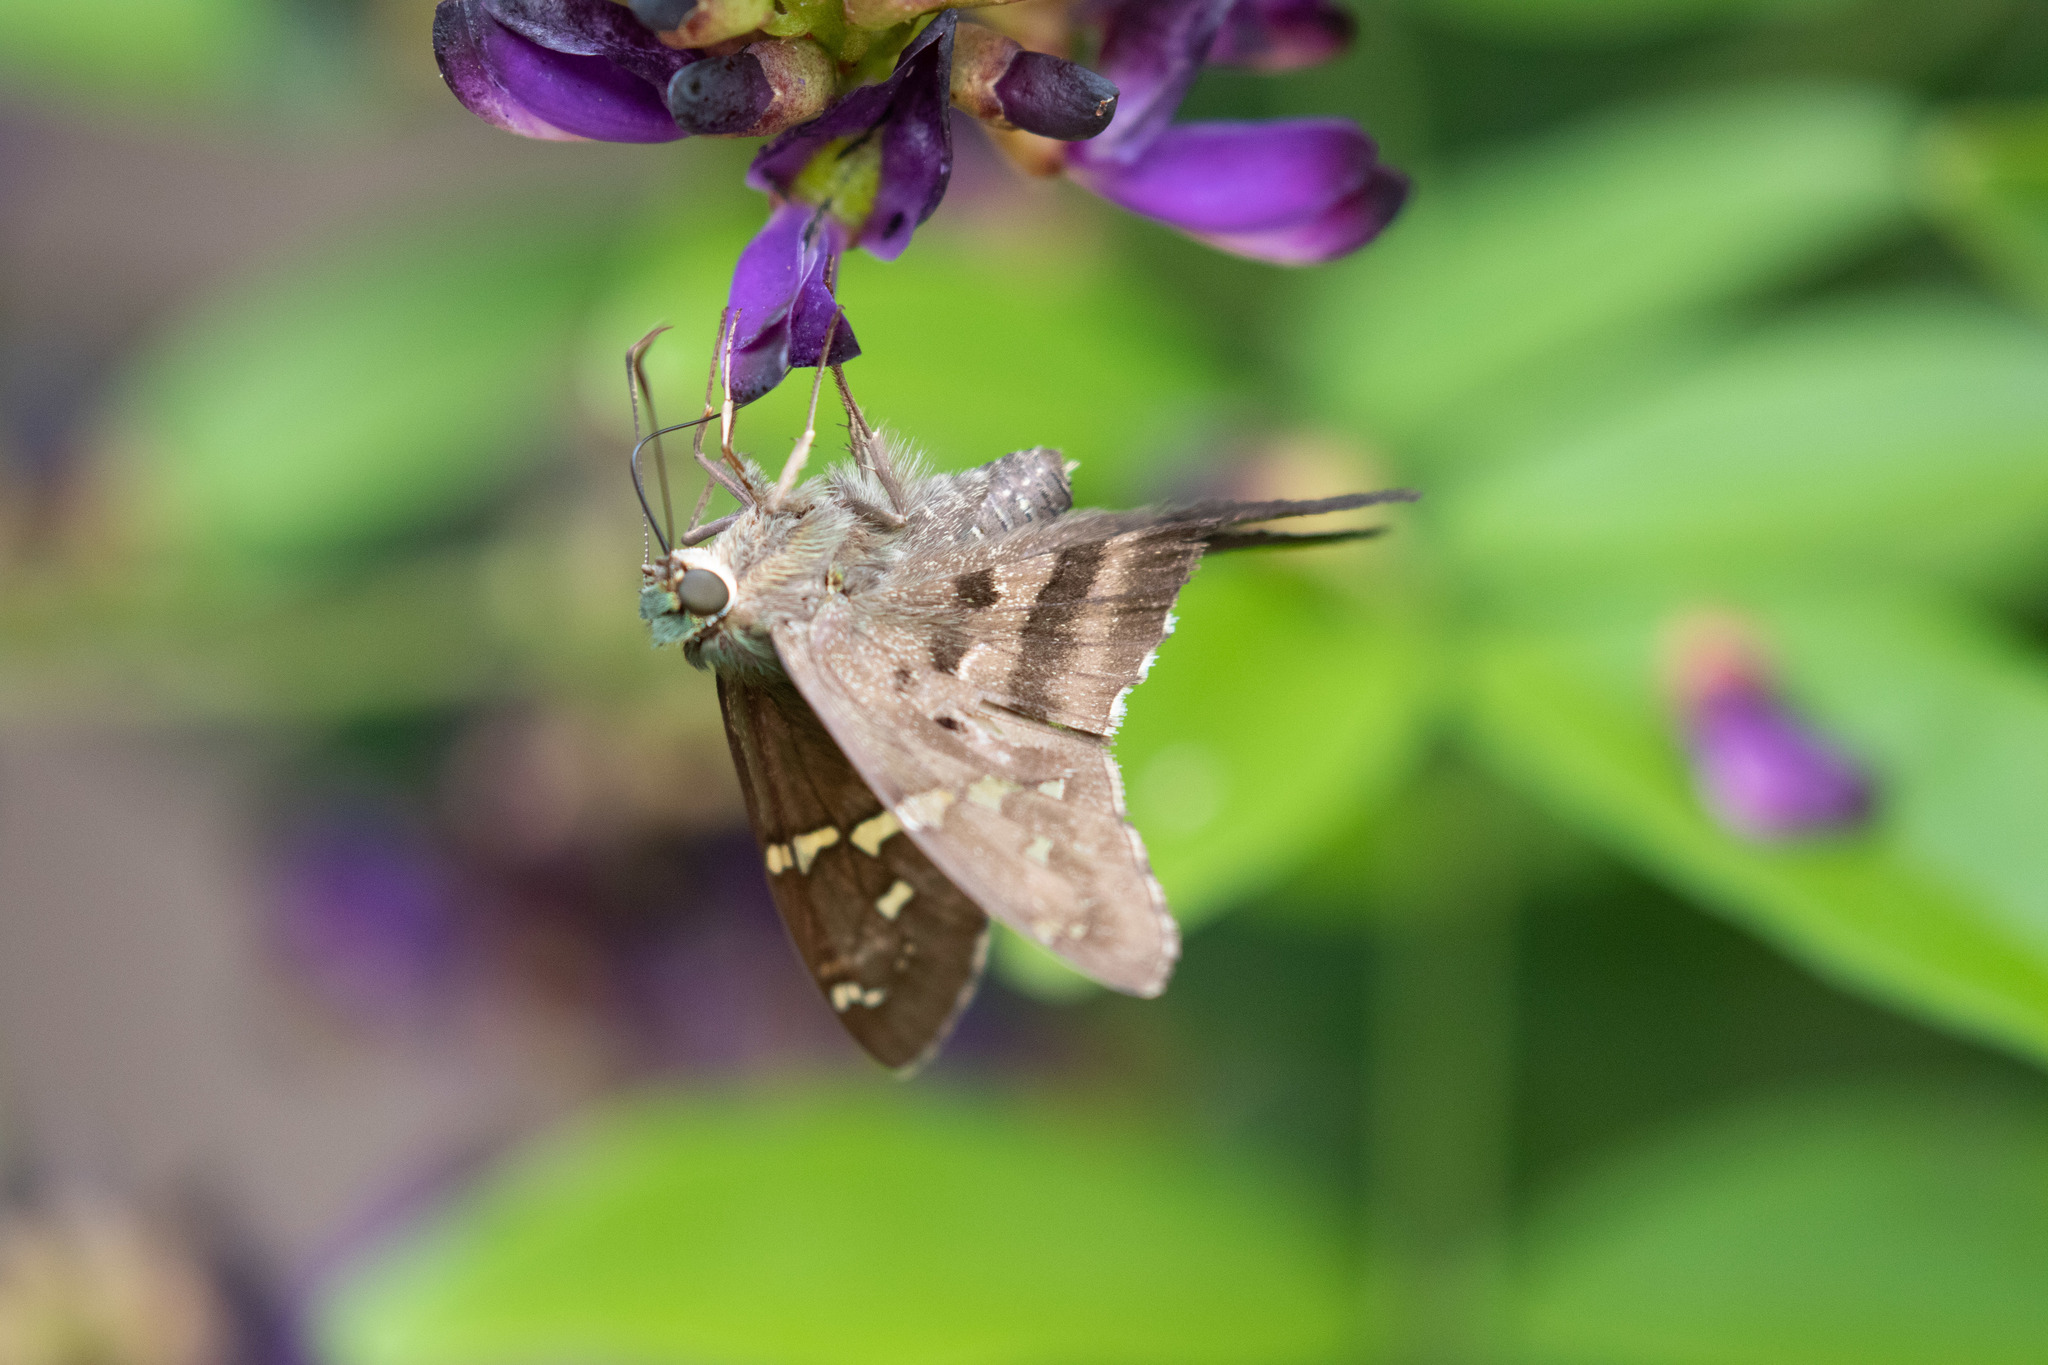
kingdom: Animalia
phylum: Arthropoda
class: Insecta
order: Lepidoptera
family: Hesperiidae
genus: Urbanus
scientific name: Urbanus proteus
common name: Long-tailed skipper
